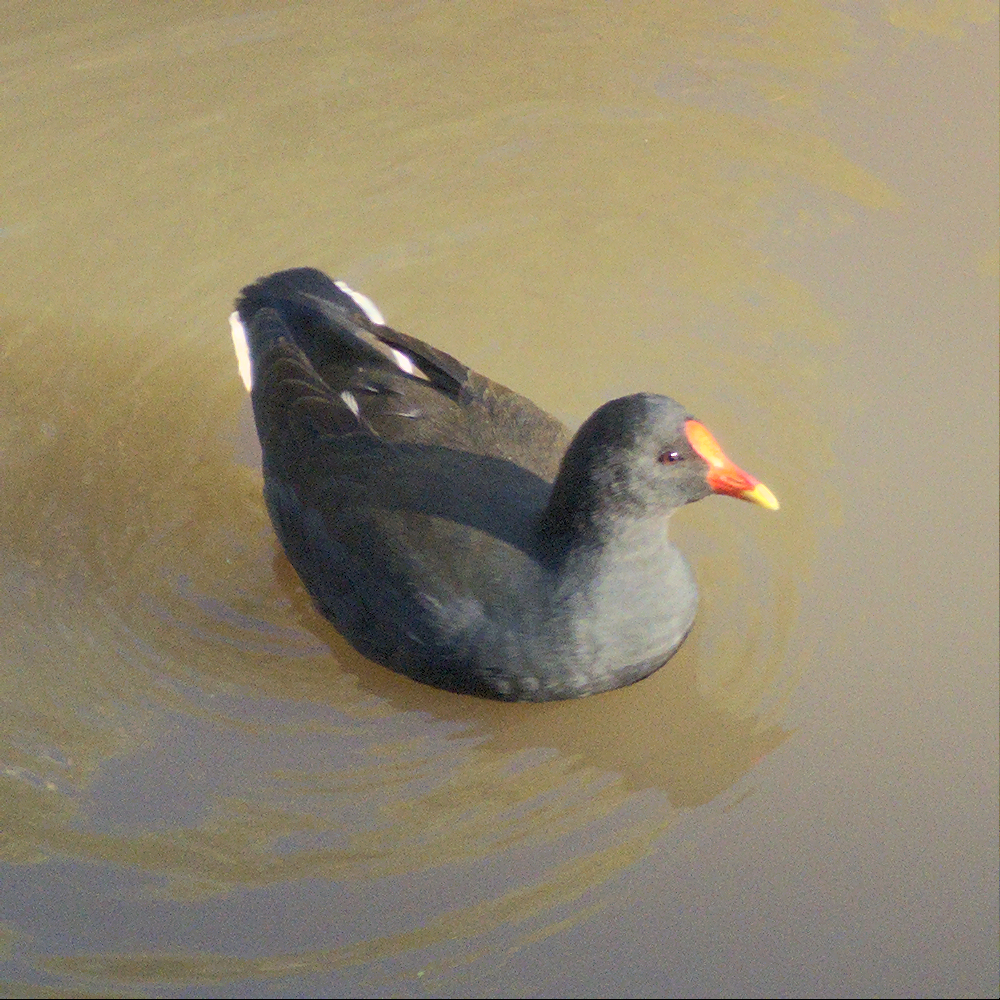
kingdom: Animalia
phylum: Chordata
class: Aves
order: Gruiformes
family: Rallidae
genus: Gallinula
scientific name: Gallinula tenebrosa
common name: Dusky moorhen
